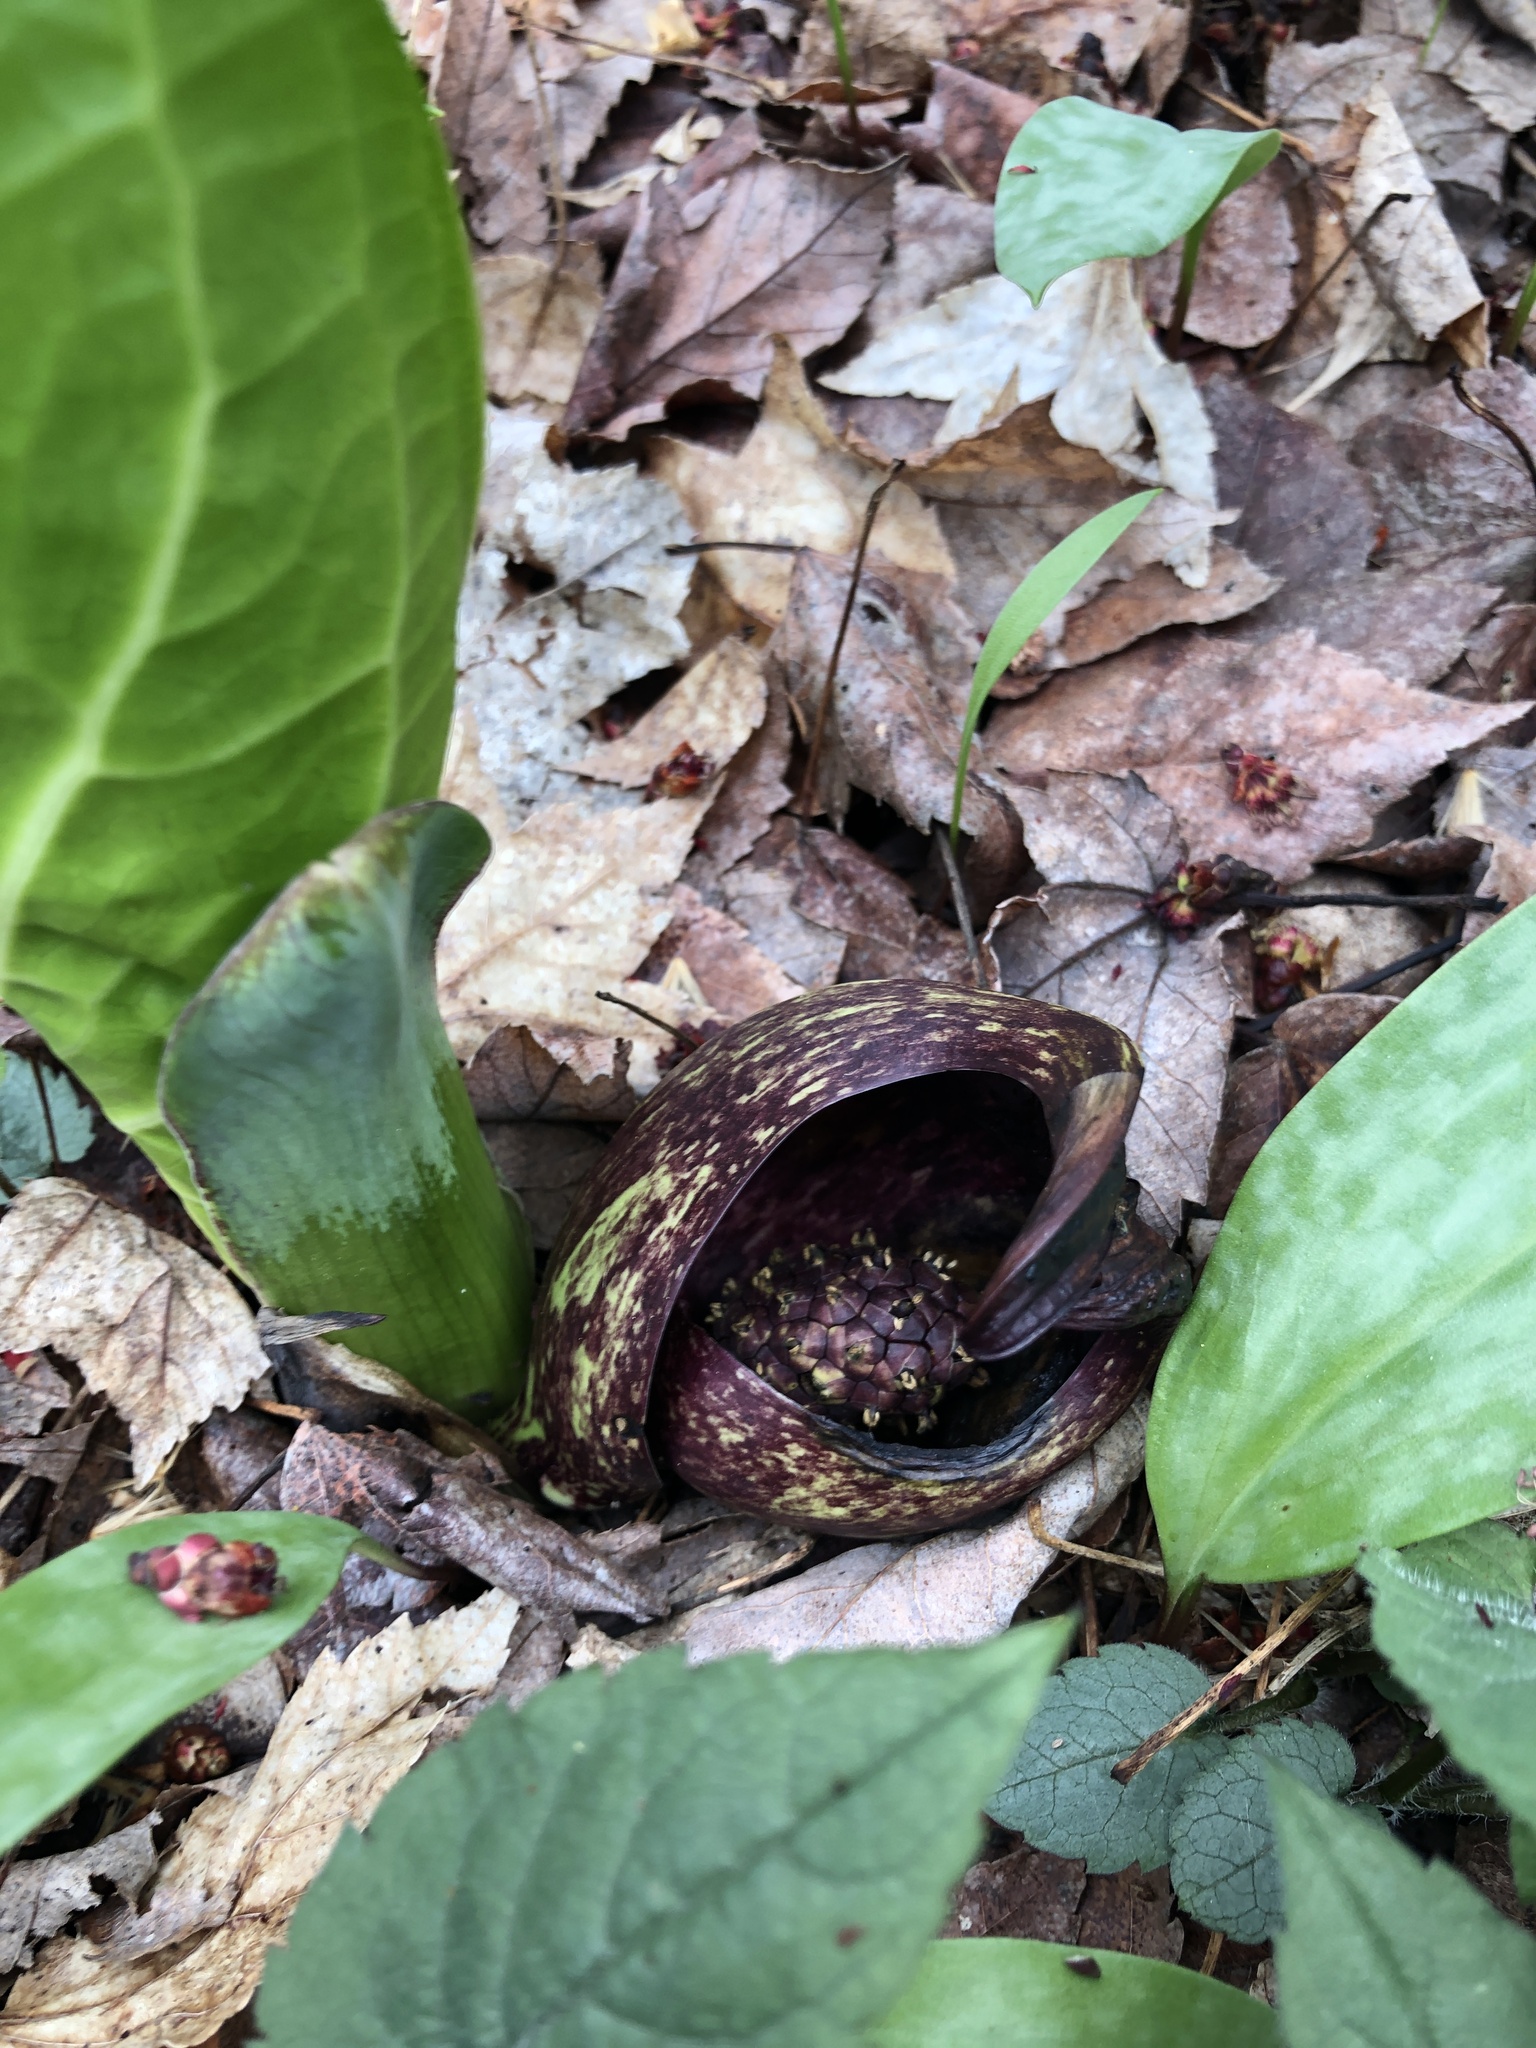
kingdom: Plantae
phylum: Tracheophyta
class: Liliopsida
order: Alismatales
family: Araceae
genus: Symplocarpus
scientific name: Symplocarpus foetidus
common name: Eastern skunk cabbage
